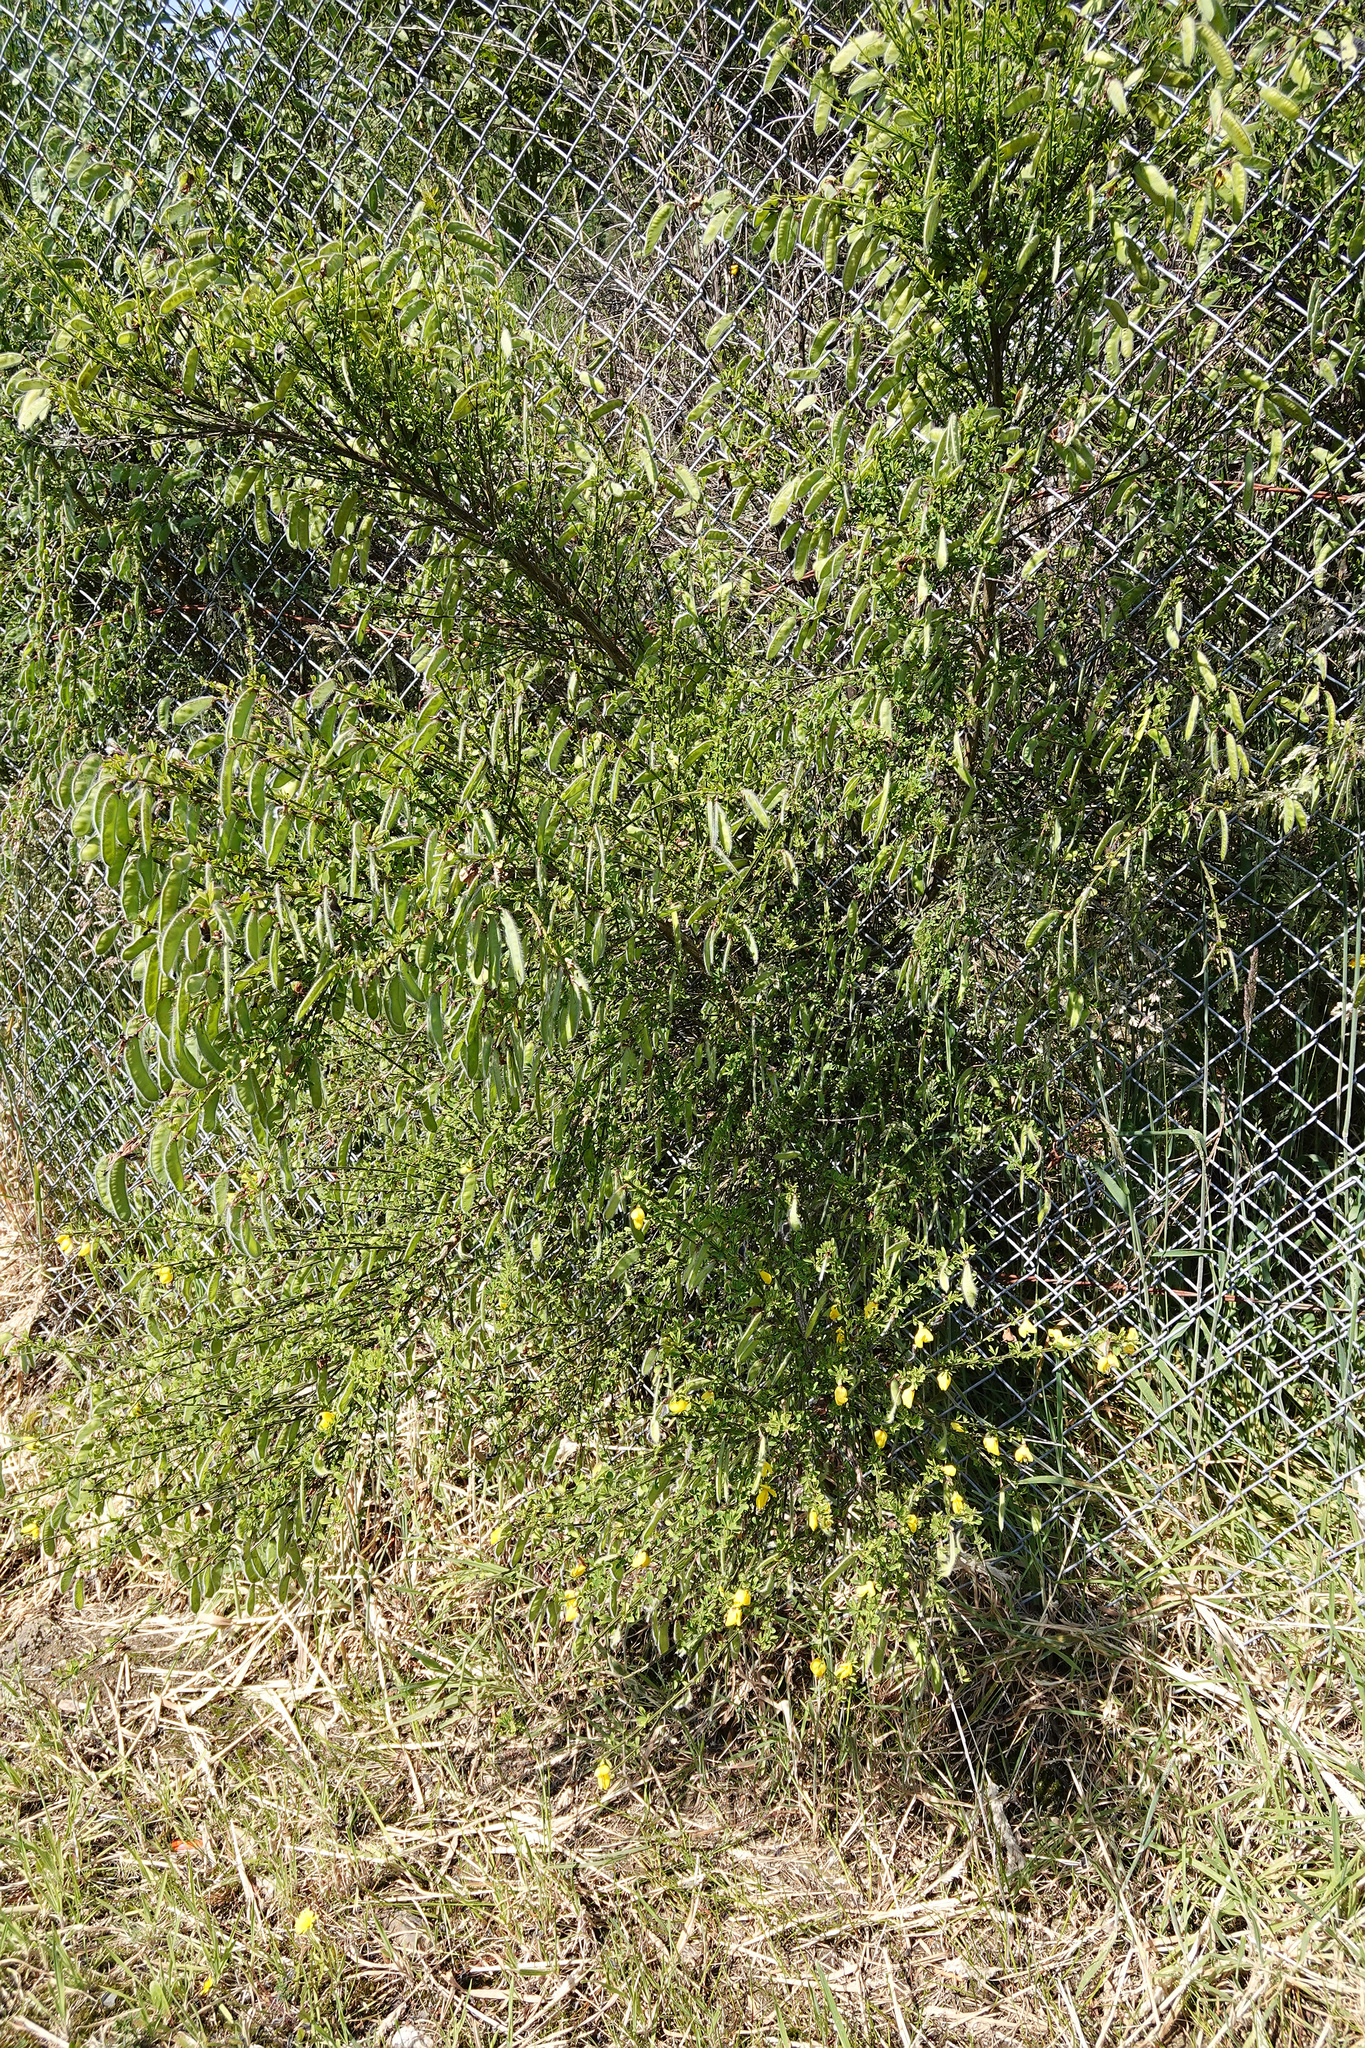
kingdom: Plantae
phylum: Tracheophyta
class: Magnoliopsida
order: Fabales
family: Fabaceae
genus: Cytisus
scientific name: Cytisus scoparius
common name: Scotch broom
